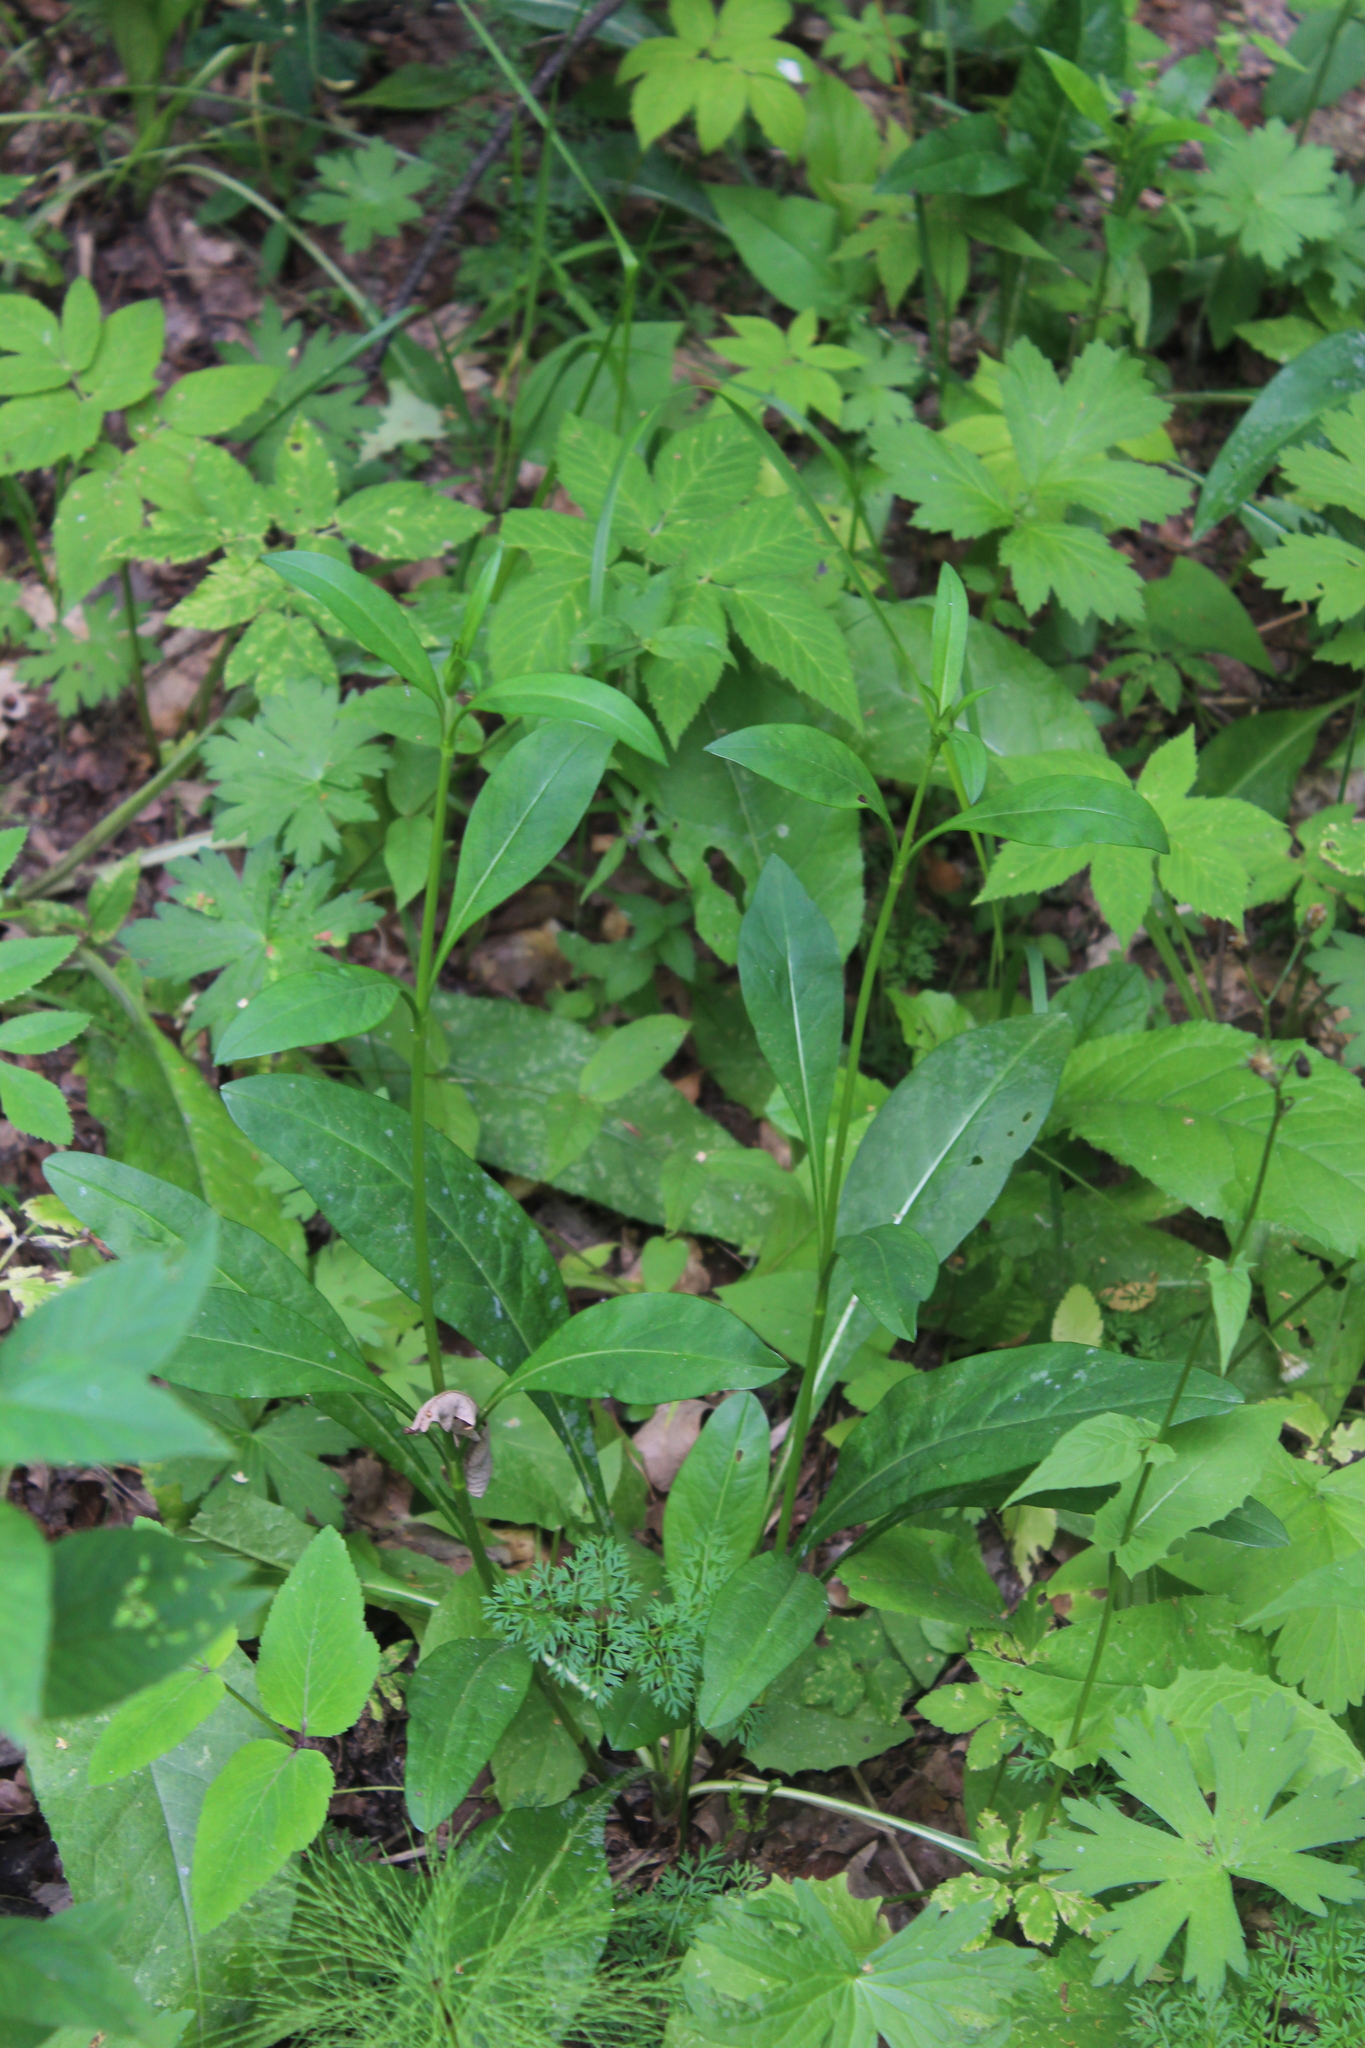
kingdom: Plantae
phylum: Tracheophyta
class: Magnoliopsida
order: Dipsacales
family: Caprifoliaceae
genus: Succisa
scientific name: Succisa pratensis
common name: Devil's-bit
